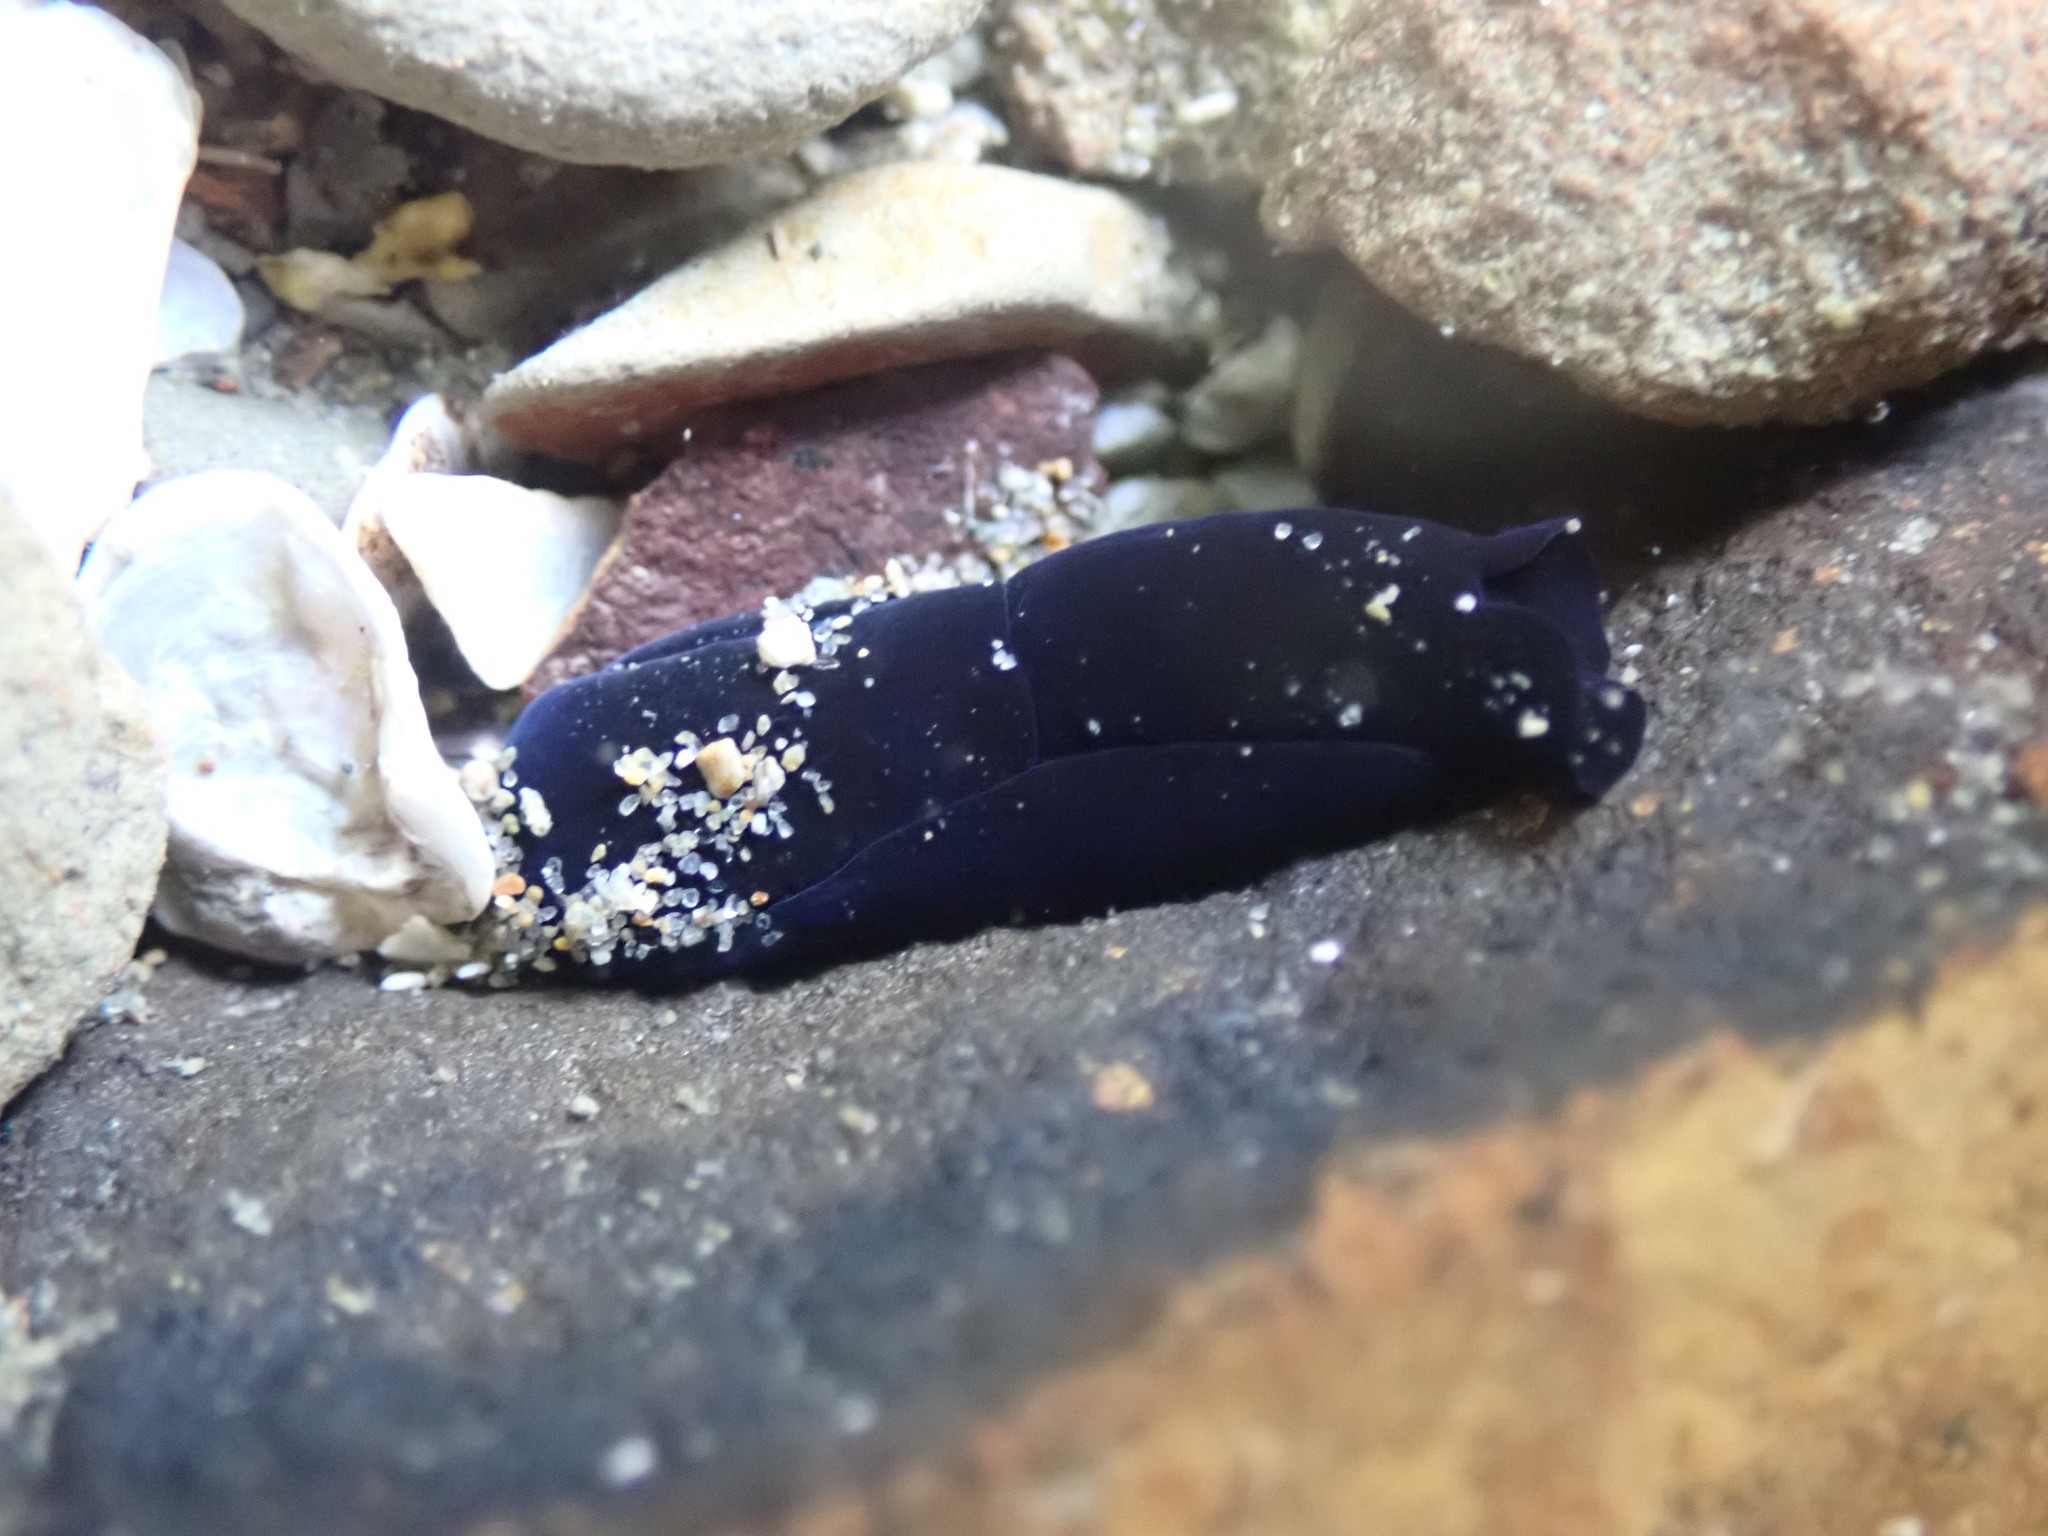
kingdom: Animalia
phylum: Mollusca
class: Gastropoda
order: Cephalaspidea
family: Aglajidae
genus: Melanochlamys
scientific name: Melanochlamys cylindrica
